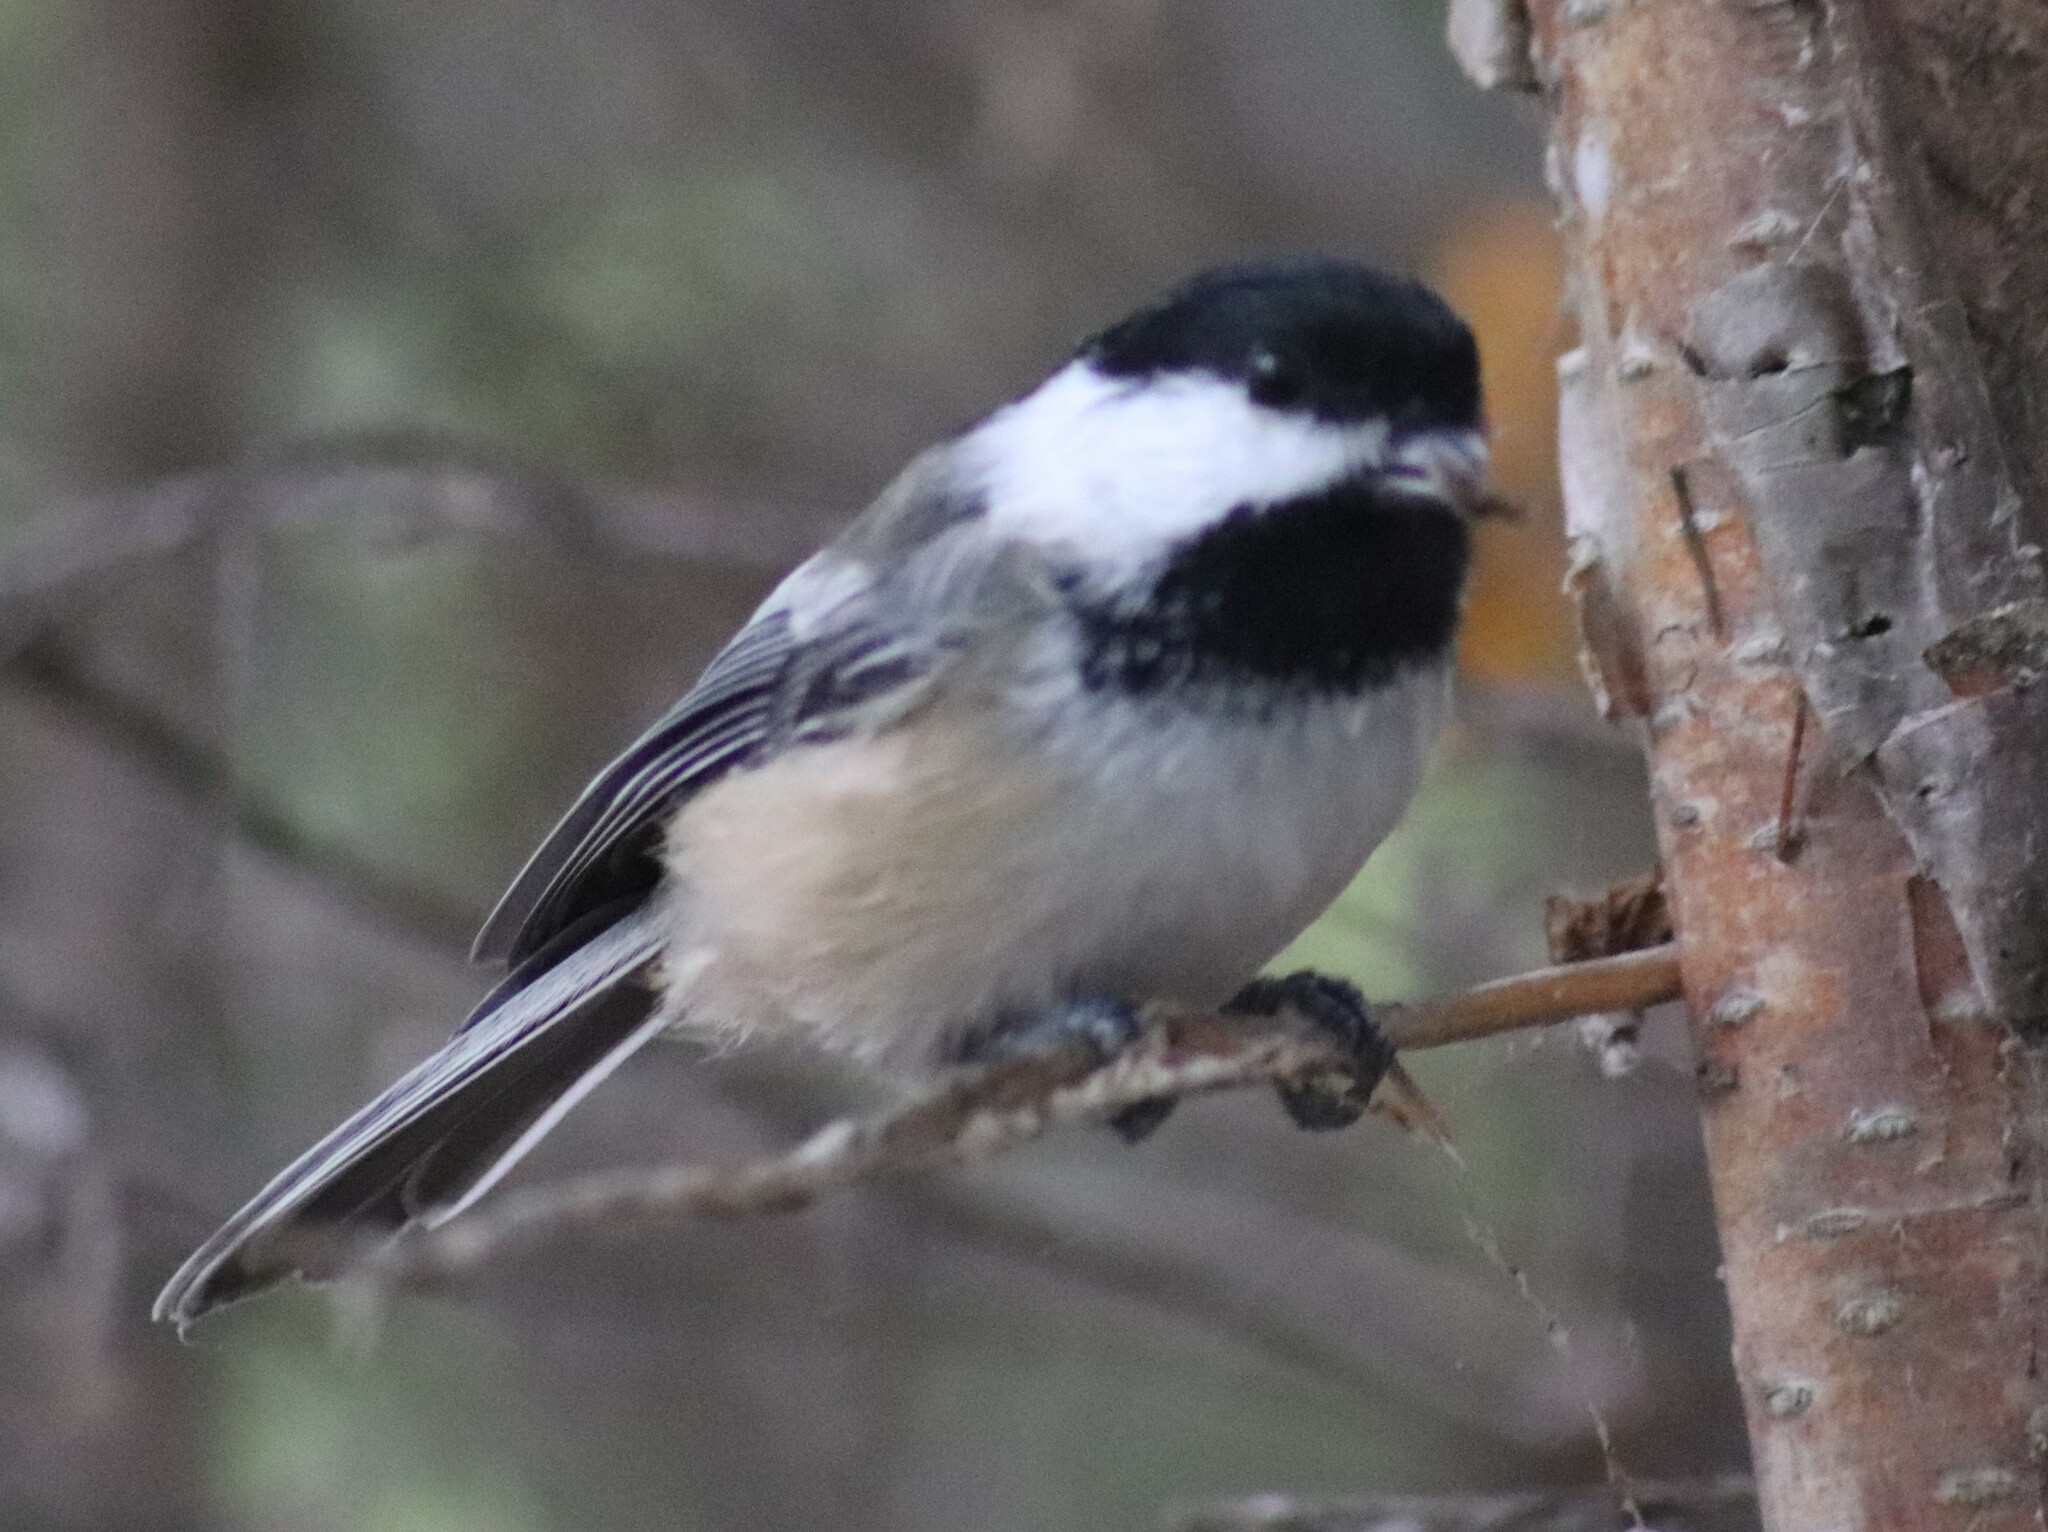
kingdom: Animalia
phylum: Chordata
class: Aves
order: Passeriformes
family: Paridae
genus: Poecile
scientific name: Poecile atricapillus
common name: Black-capped chickadee
